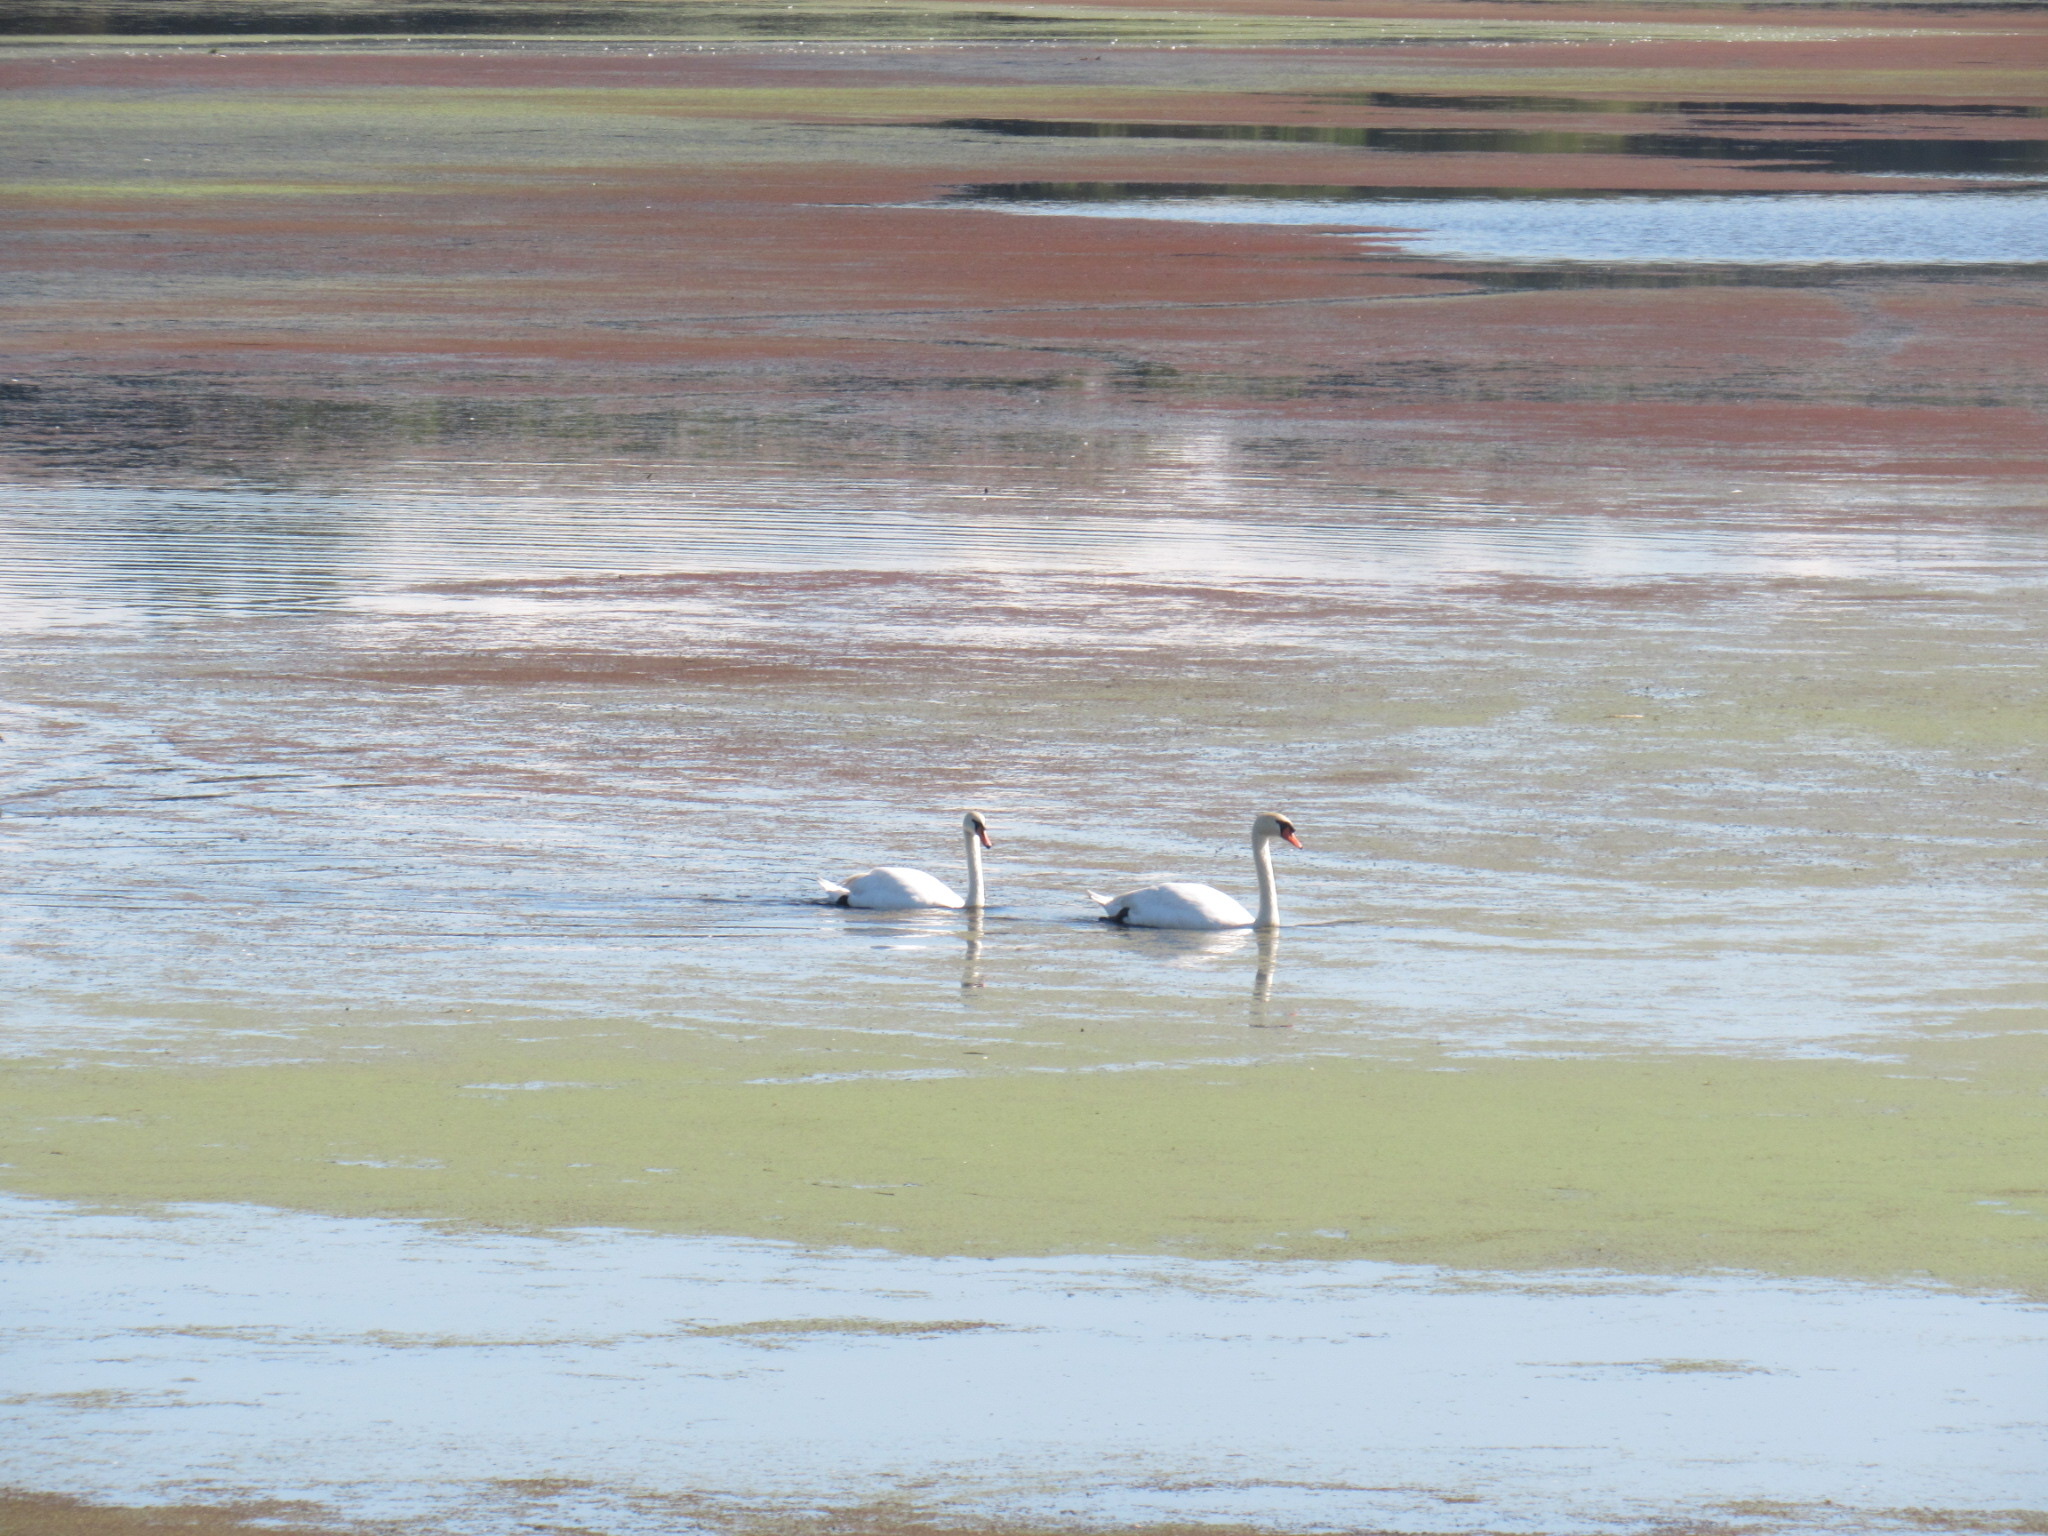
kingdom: Animalia
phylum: Chordata
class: Aves
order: Anseriformes
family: Anatidae
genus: Cygnus
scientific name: Cygnus olor
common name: Mute swan
